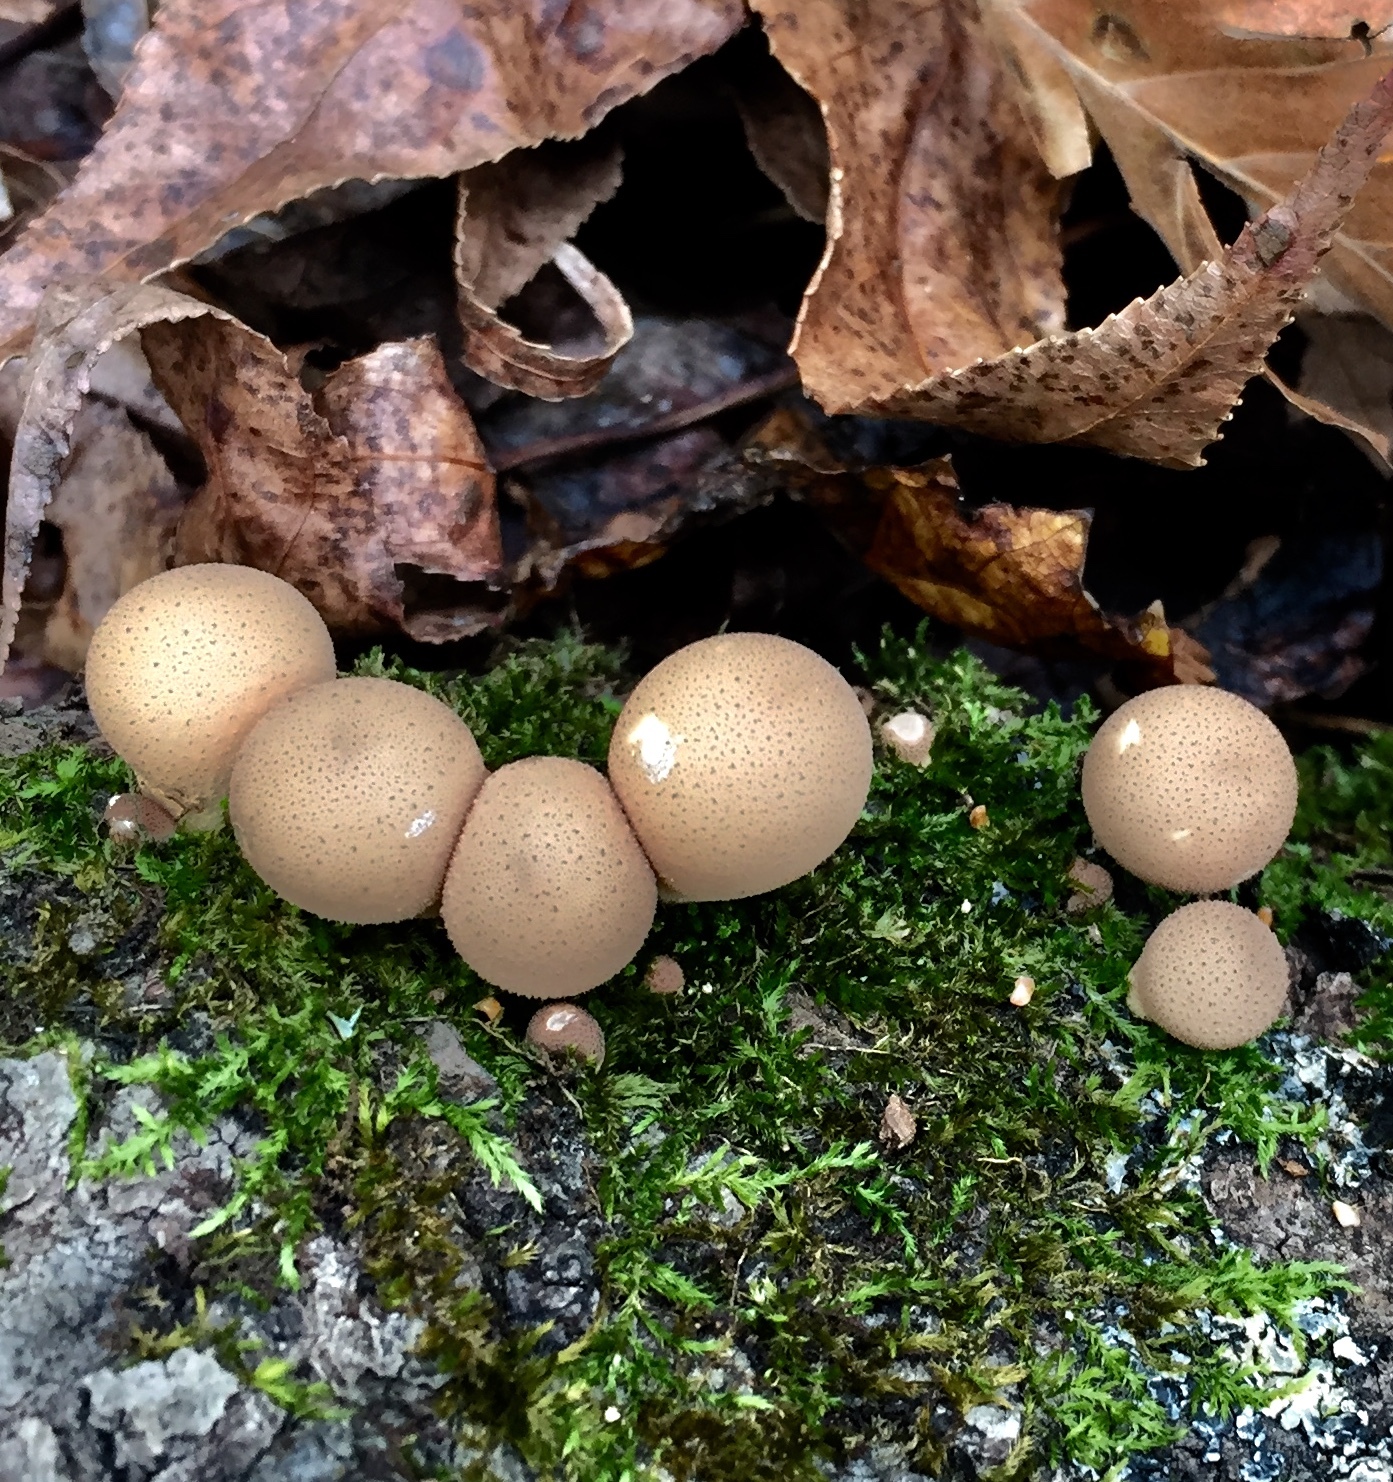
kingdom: Fungi
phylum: Basidiomycota
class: Agaricomycetes
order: Agaricales
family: Lycoperdaceae
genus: Apioperdon
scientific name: Apioperdon pyriforme
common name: Pear-shaped puffball
